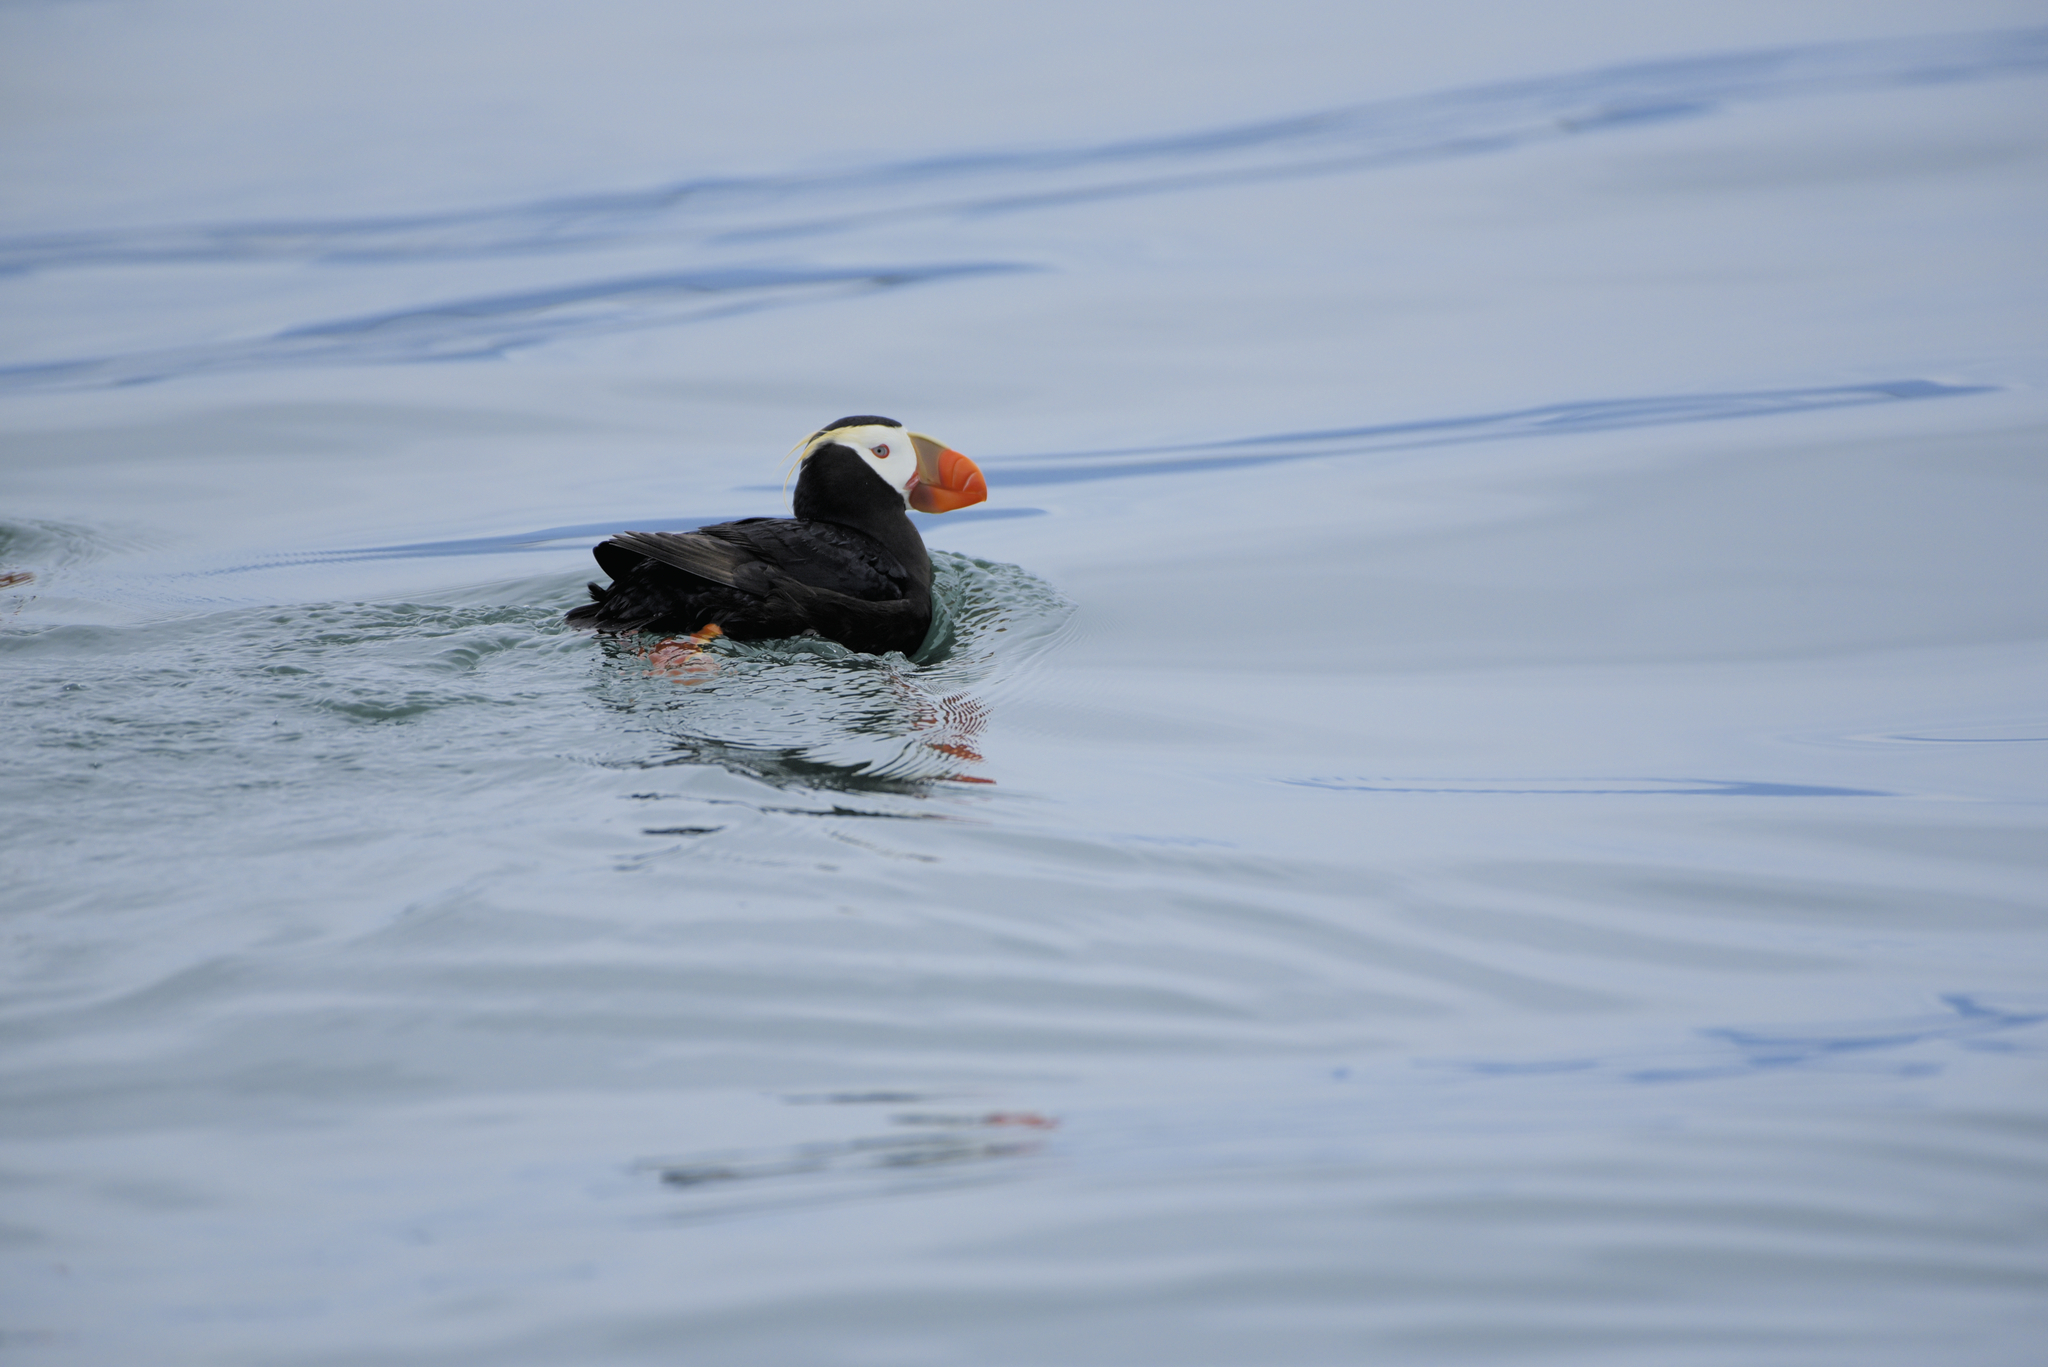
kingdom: Animalia
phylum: Chordata
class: Aves
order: Charadriiformes
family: Alcidae
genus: Fratercula
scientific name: Fratercula cirrhata
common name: Tufted puffin
